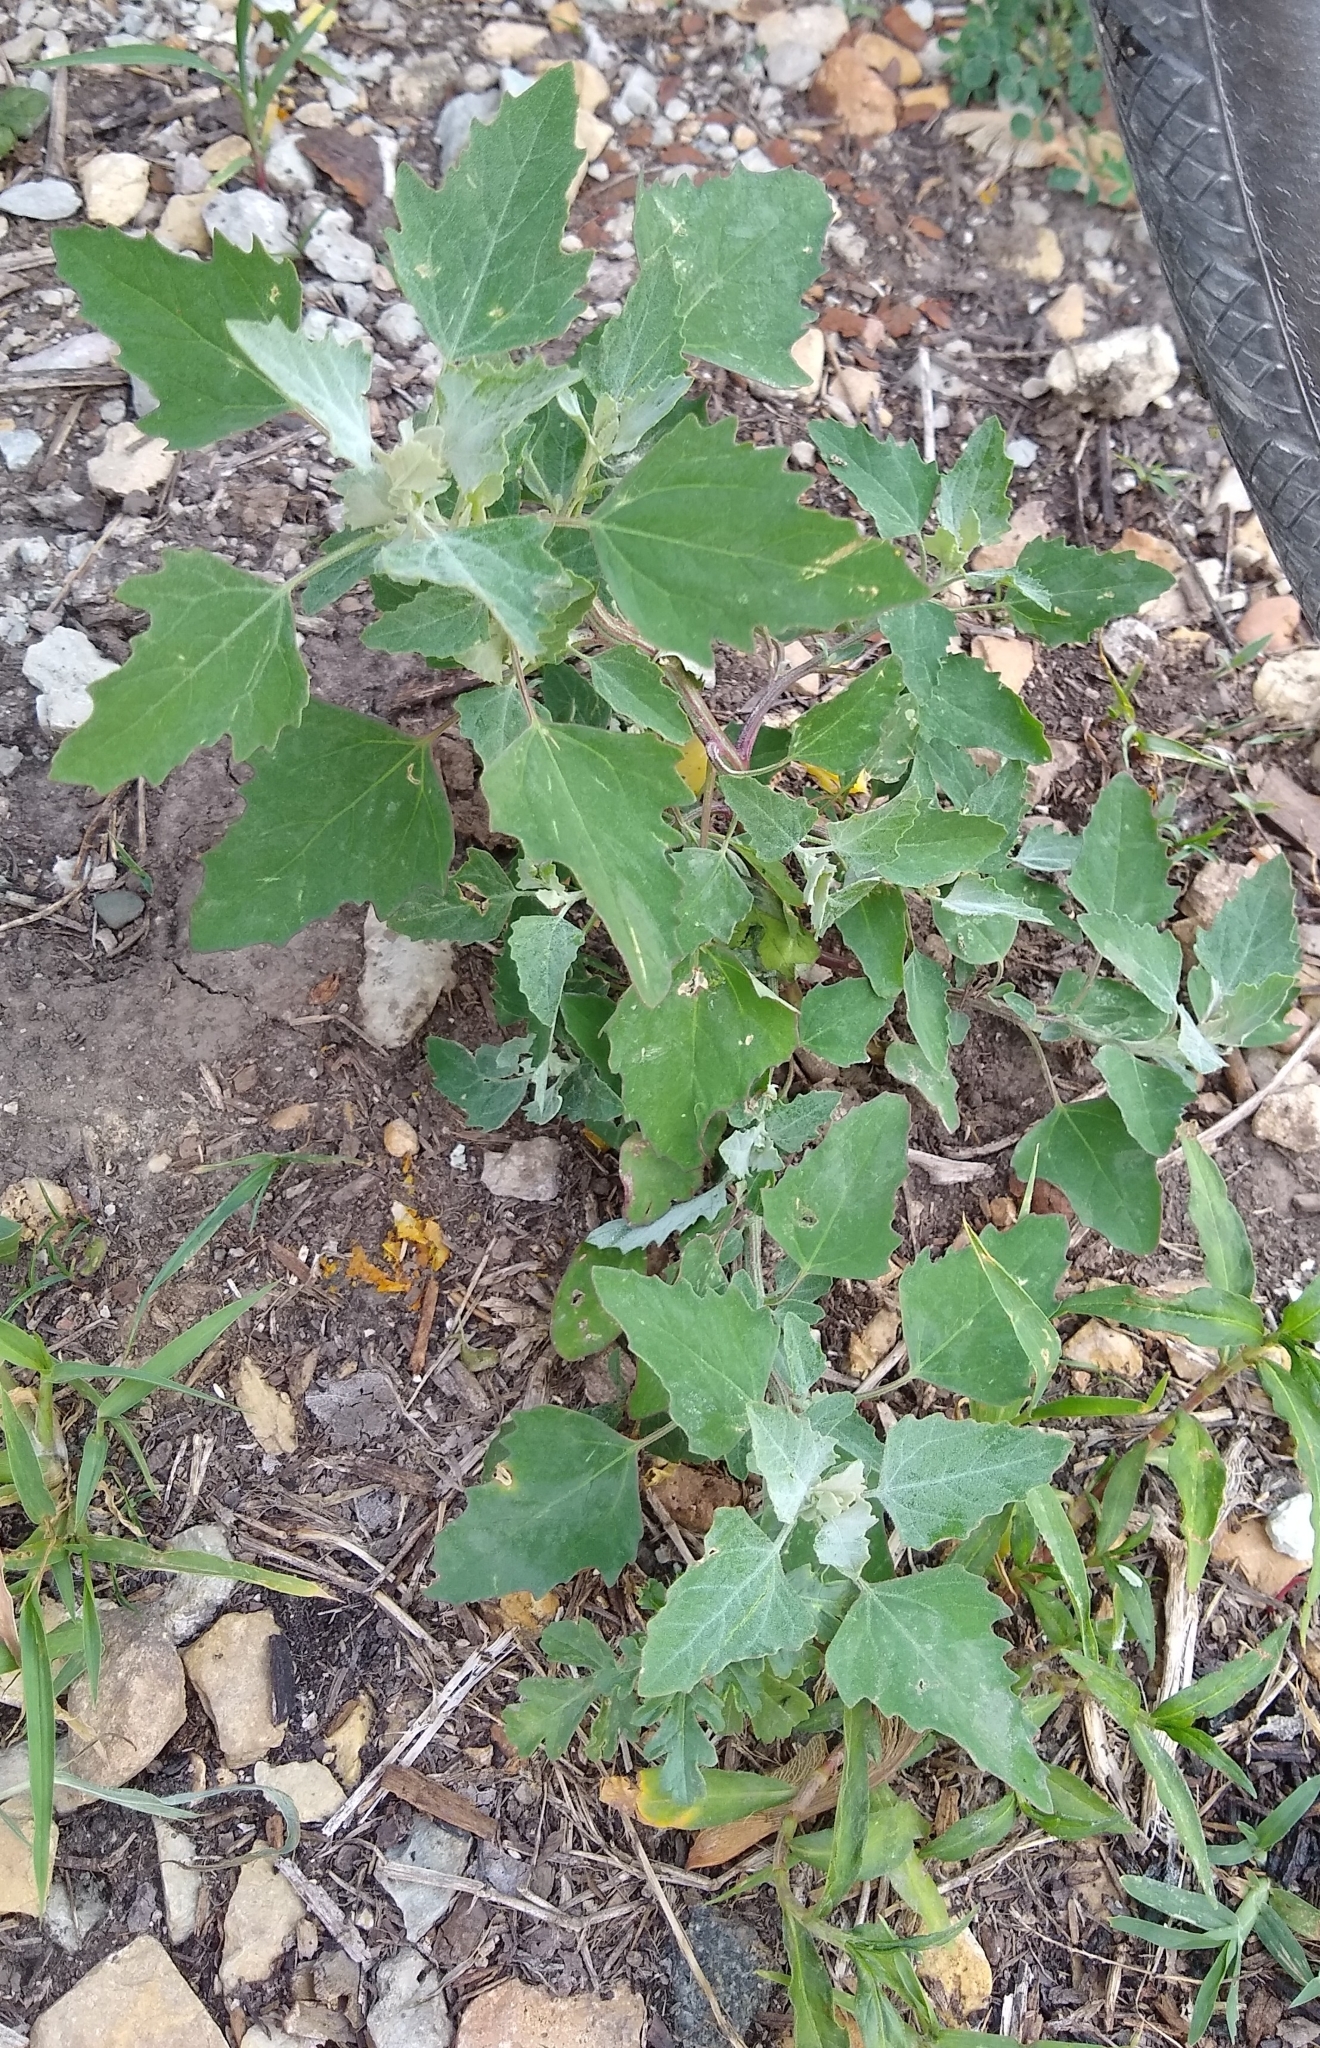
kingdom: Plantae
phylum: Tracheophyta
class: Magnoliopsida
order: Caryophyllales
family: Amaranthaceae
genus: Chenopodium
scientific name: Chenopodium album
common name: Fat-hen
